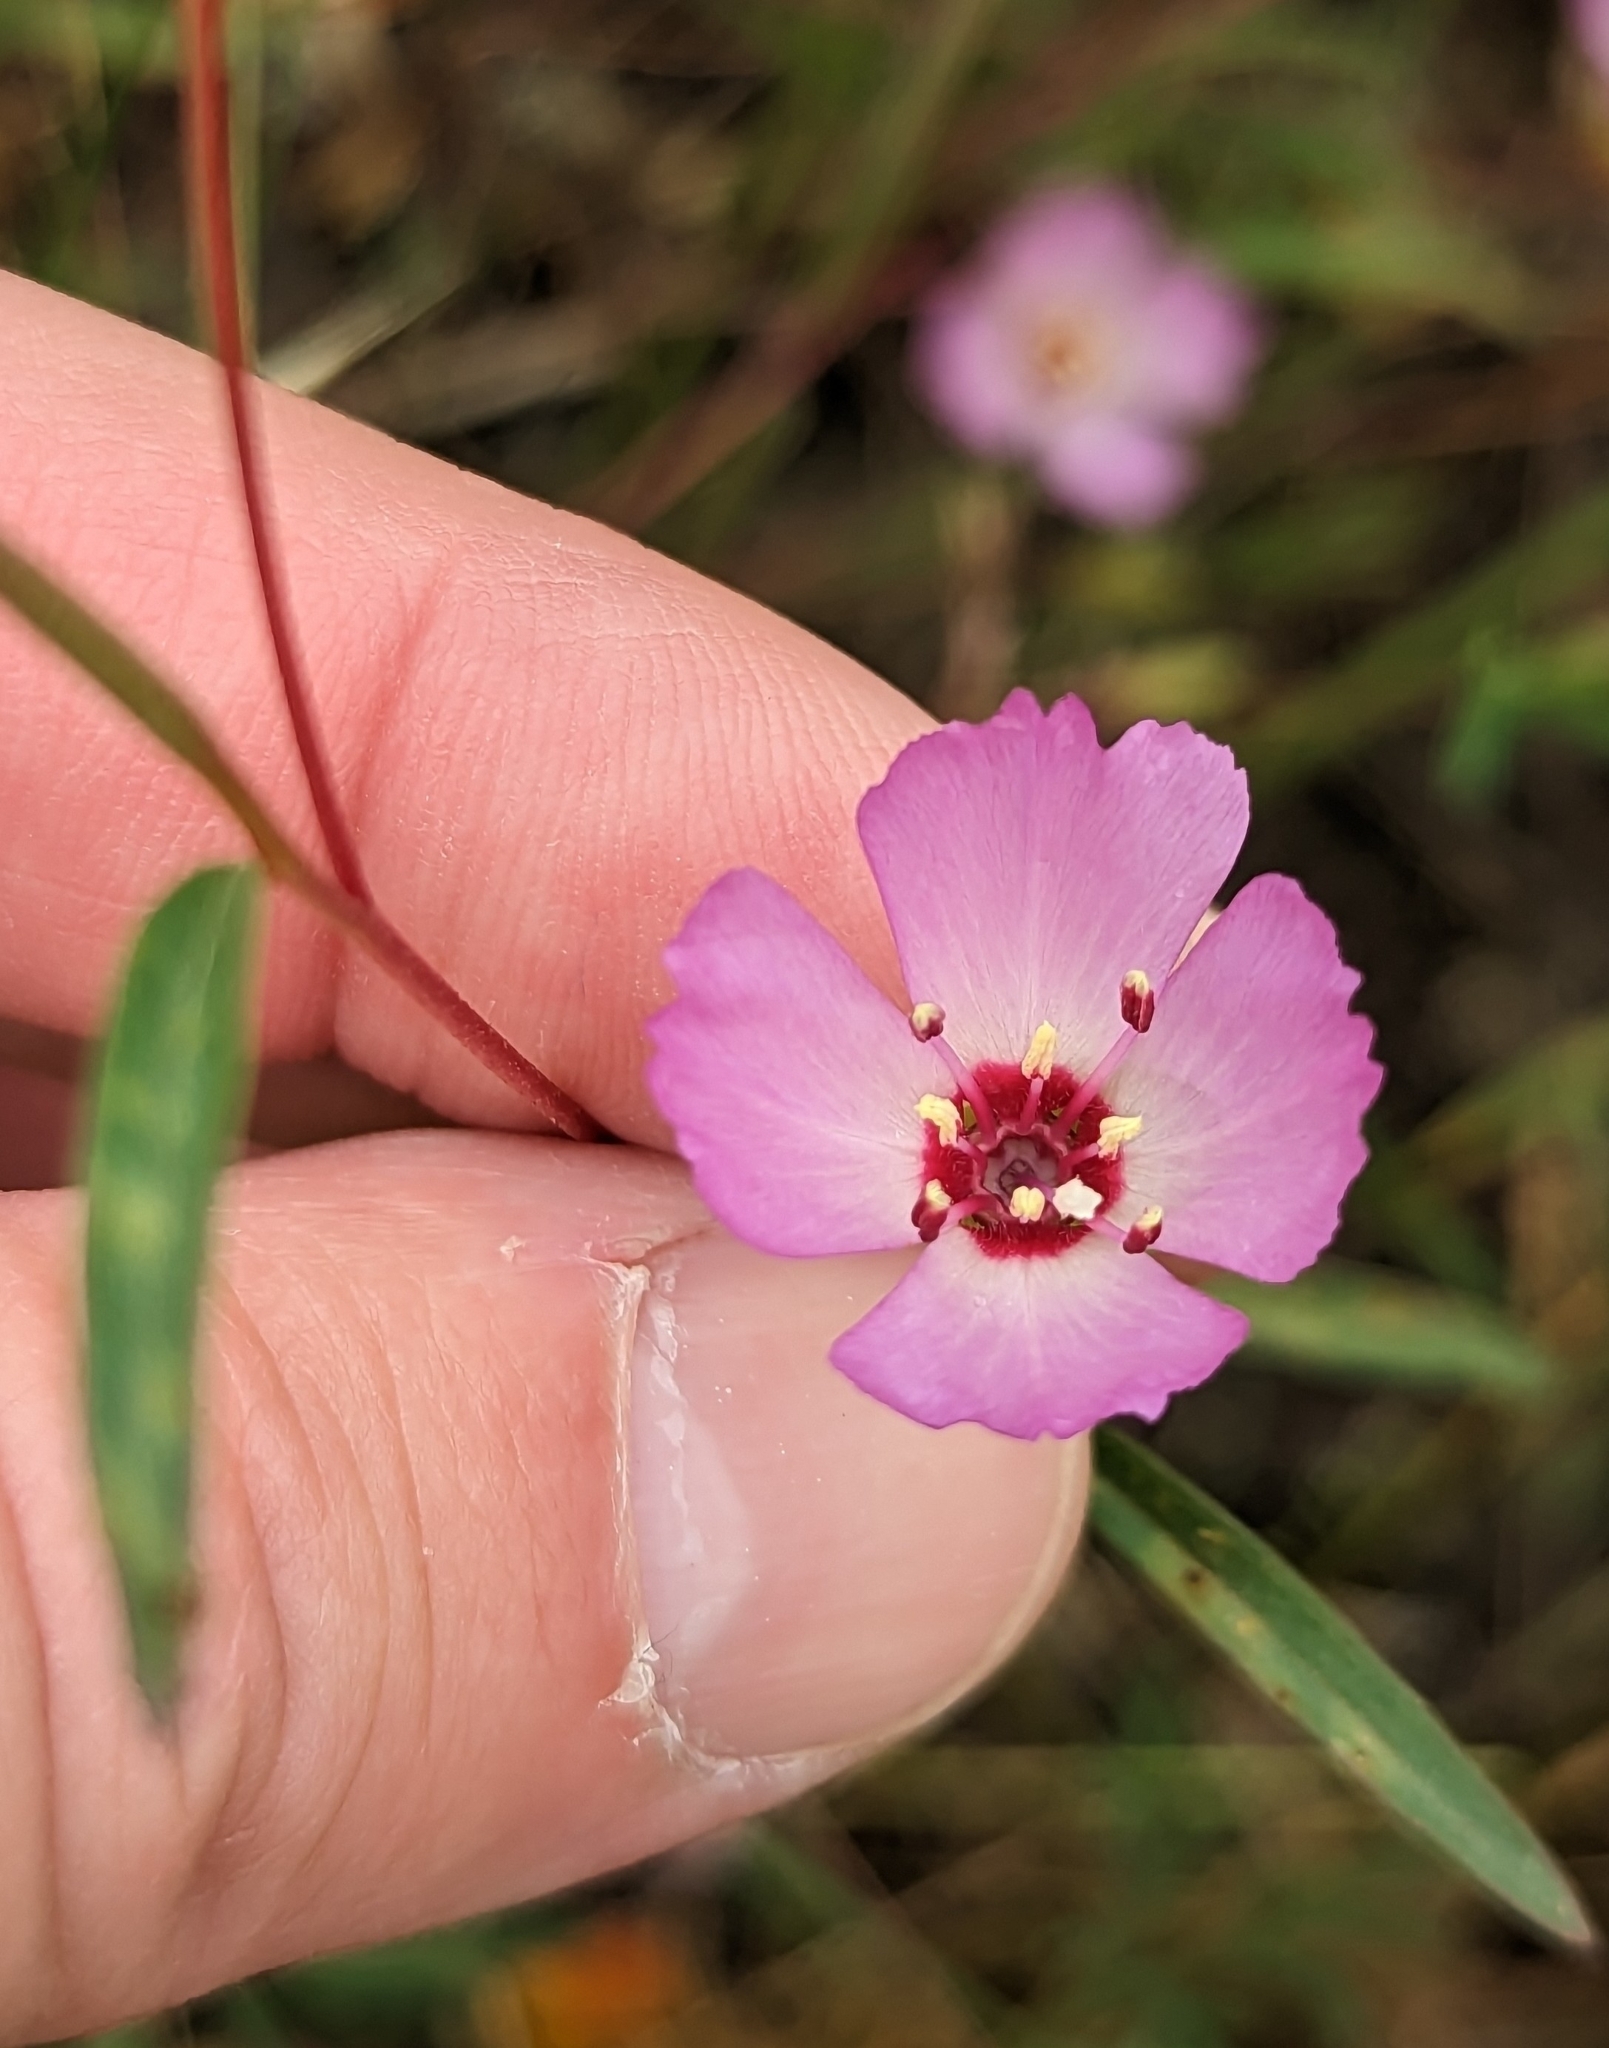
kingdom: Plantae
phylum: Tracheophyta
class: Magnoliopsida
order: Myrtales
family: Onagraceae
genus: Clarkia
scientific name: Clarkia franciscana
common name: Presidio clarkia
